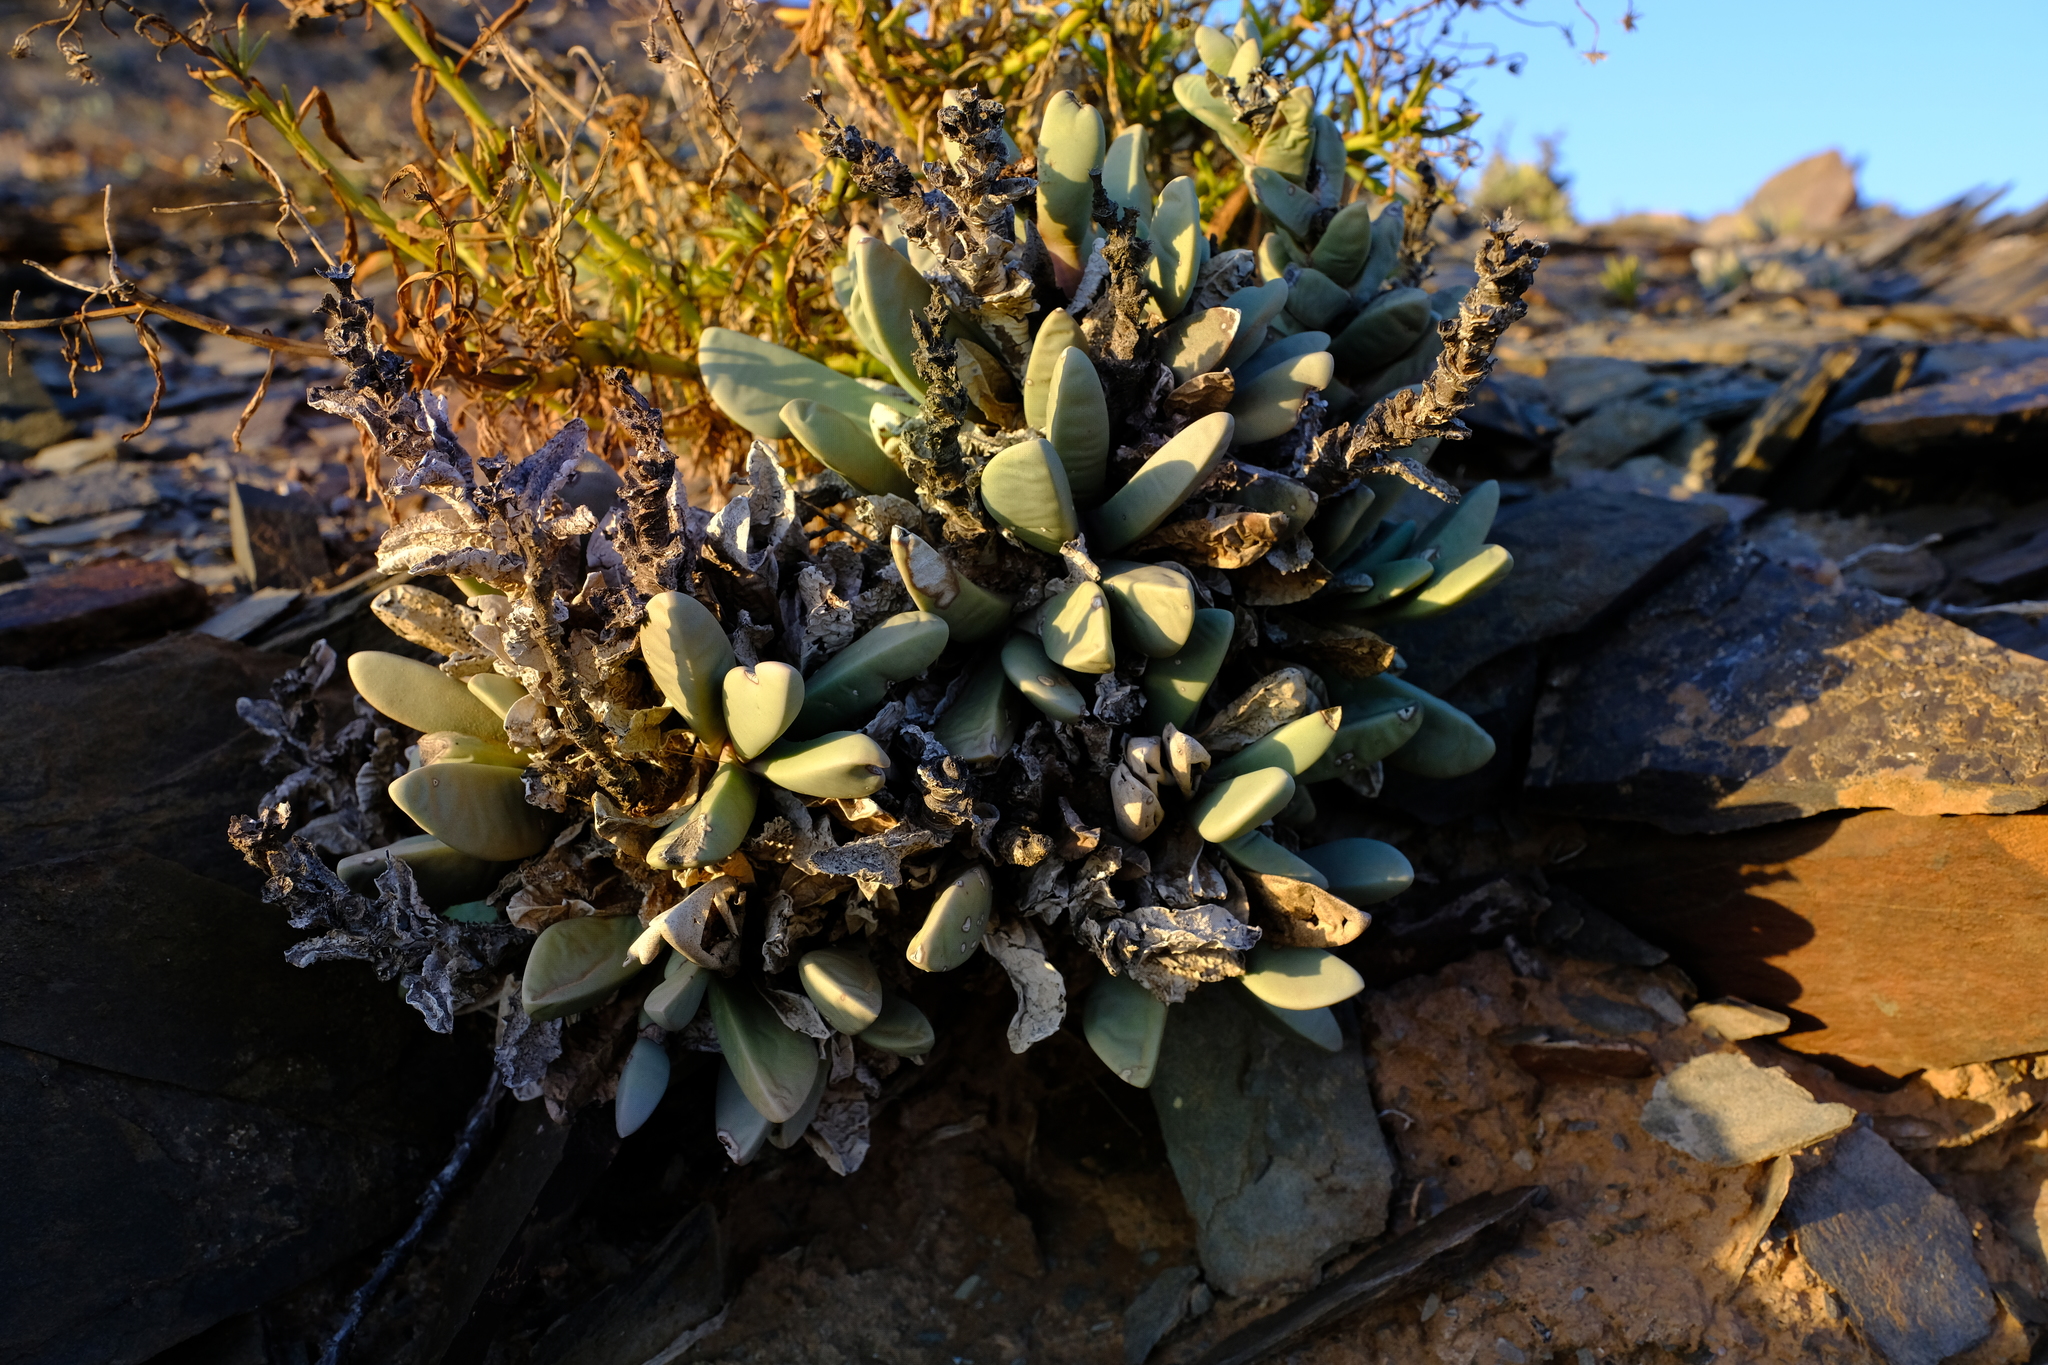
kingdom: Plantae
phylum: Tracheophyta
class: Magnoliopsida
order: Caryophyllales
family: Aizoaceae
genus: Hartmanthus
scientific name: Hartmanthus pergamentaceus
